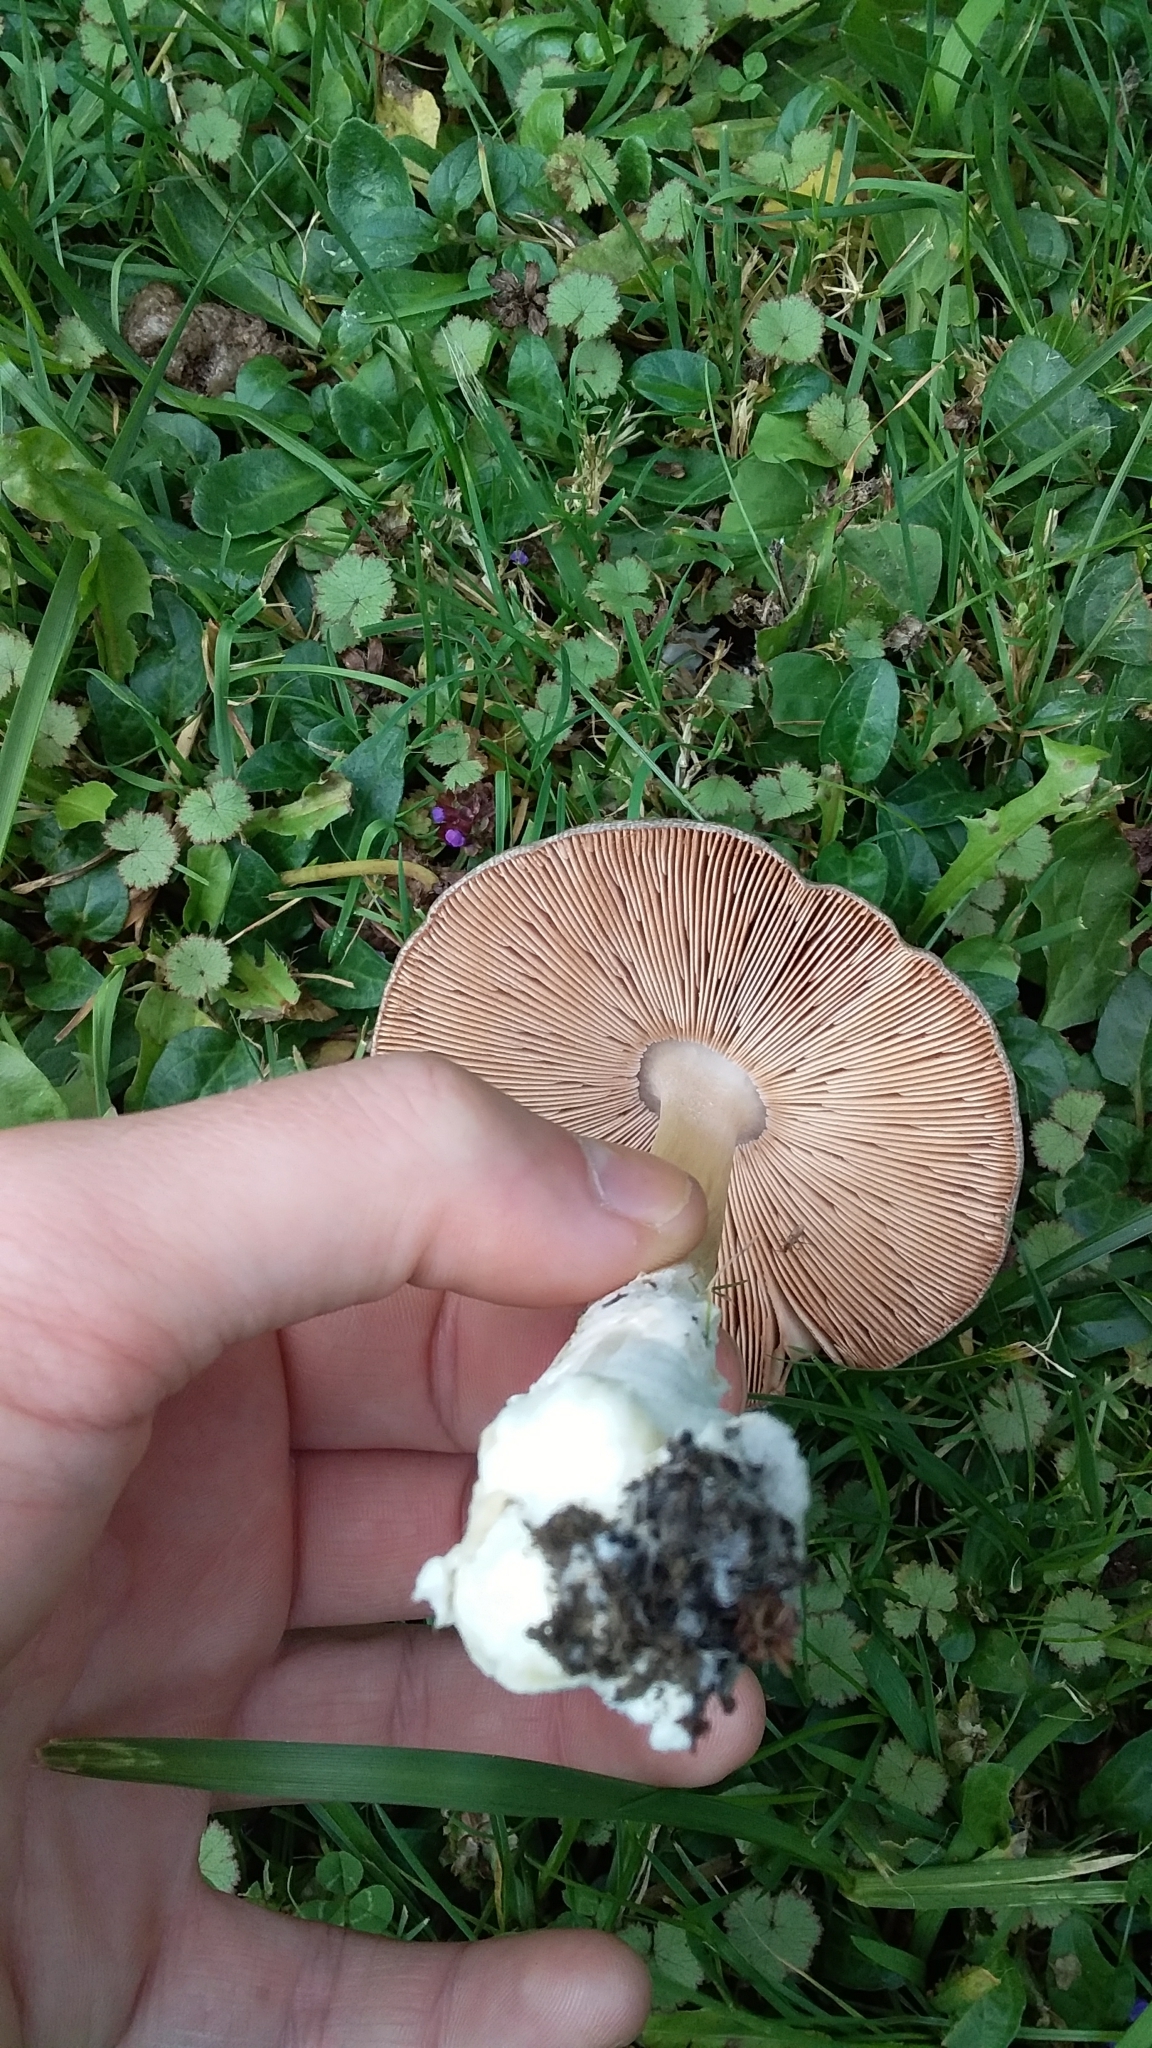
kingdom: Fungi
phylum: Basidiomycota
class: Agaricomycetes
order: Agaricales
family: Pluteaceae
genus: Volvopluteus
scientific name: Volvopluteus gloiocephalus
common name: Stubble rosegill
